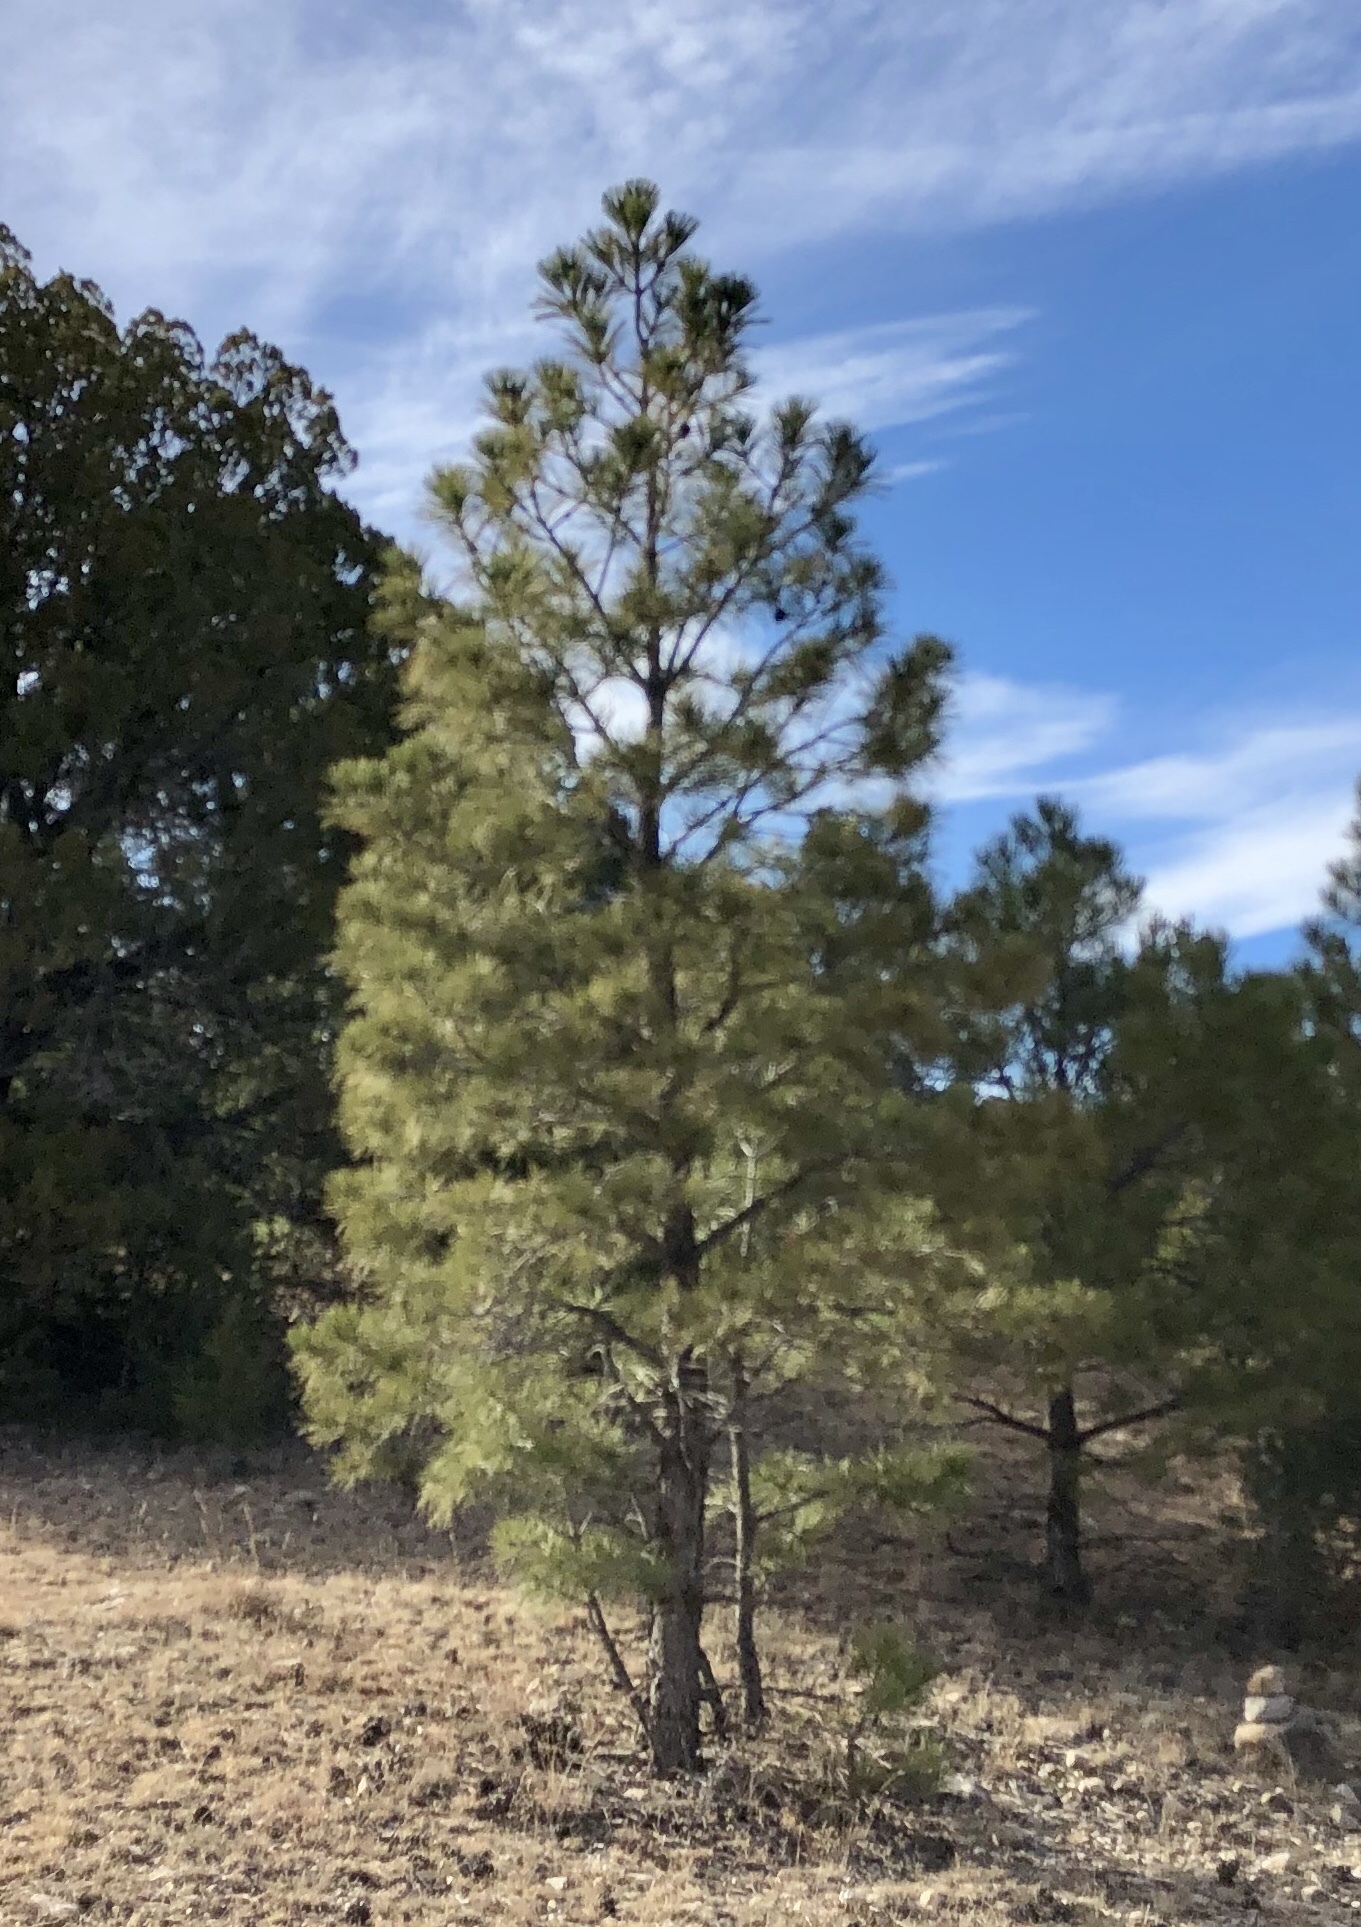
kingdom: Plantae
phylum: Tracheophyta
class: Pinopsida
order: Pinales
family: Pinaceae
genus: Pinus
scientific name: Pinus ponderosa
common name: Western yellow-pine
